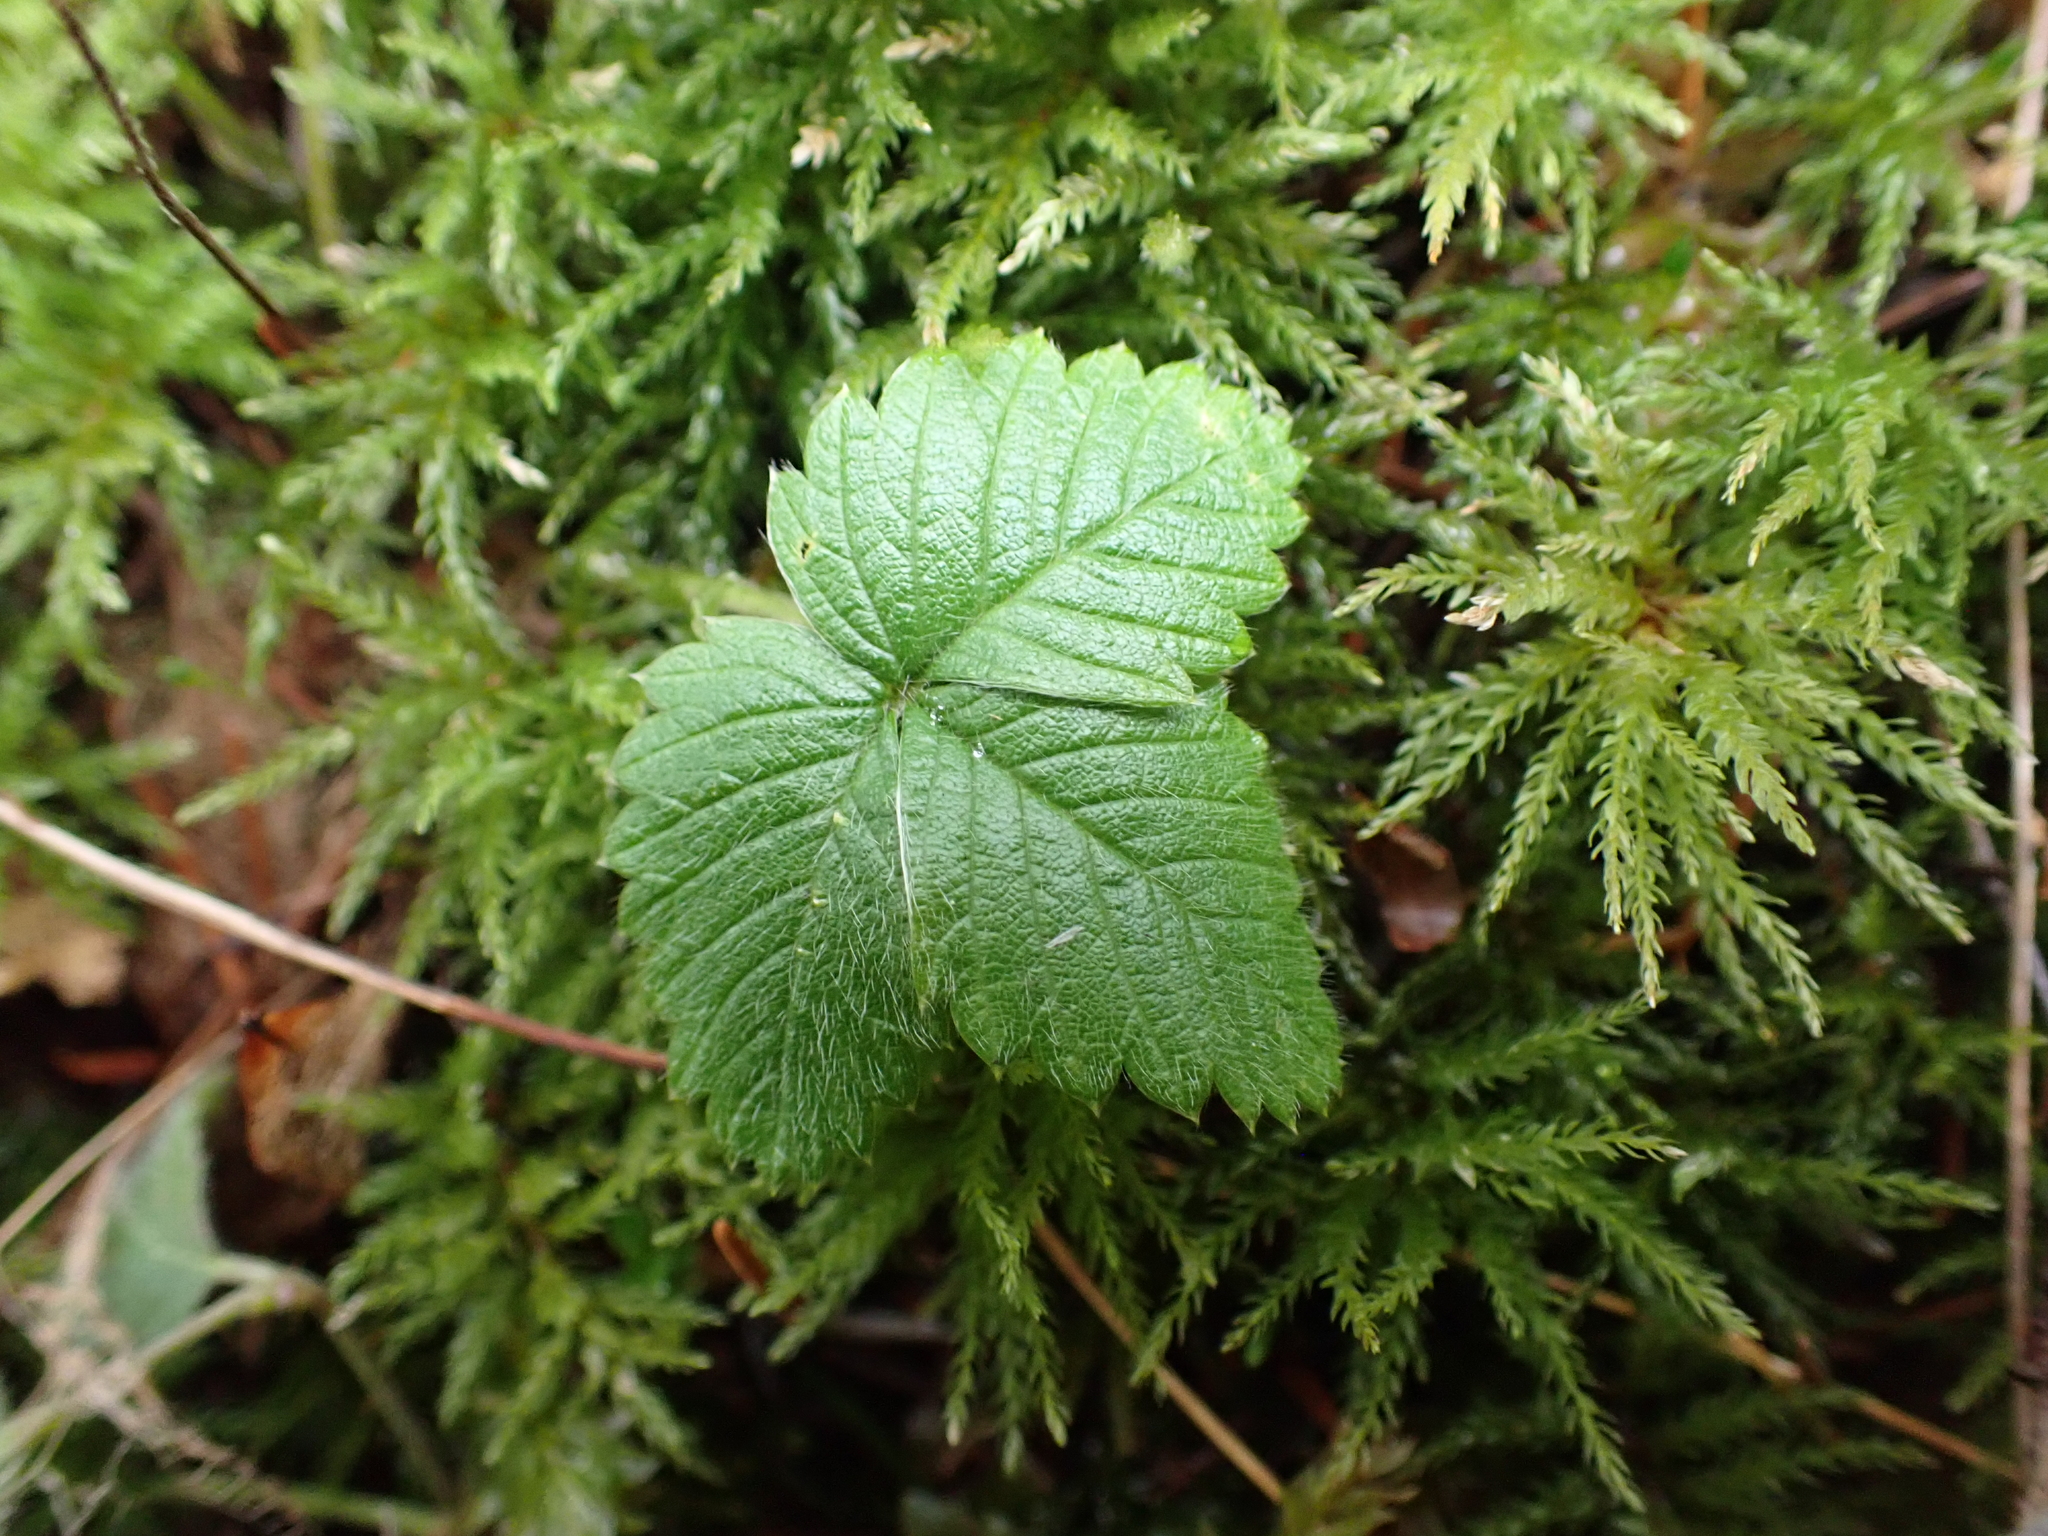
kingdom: Plantae
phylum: Tracheophyta
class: Magnoliopsida
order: Rosales
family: Rosaceae
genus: Fragaria
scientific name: Fragaria vesca
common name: Wild strawberry
